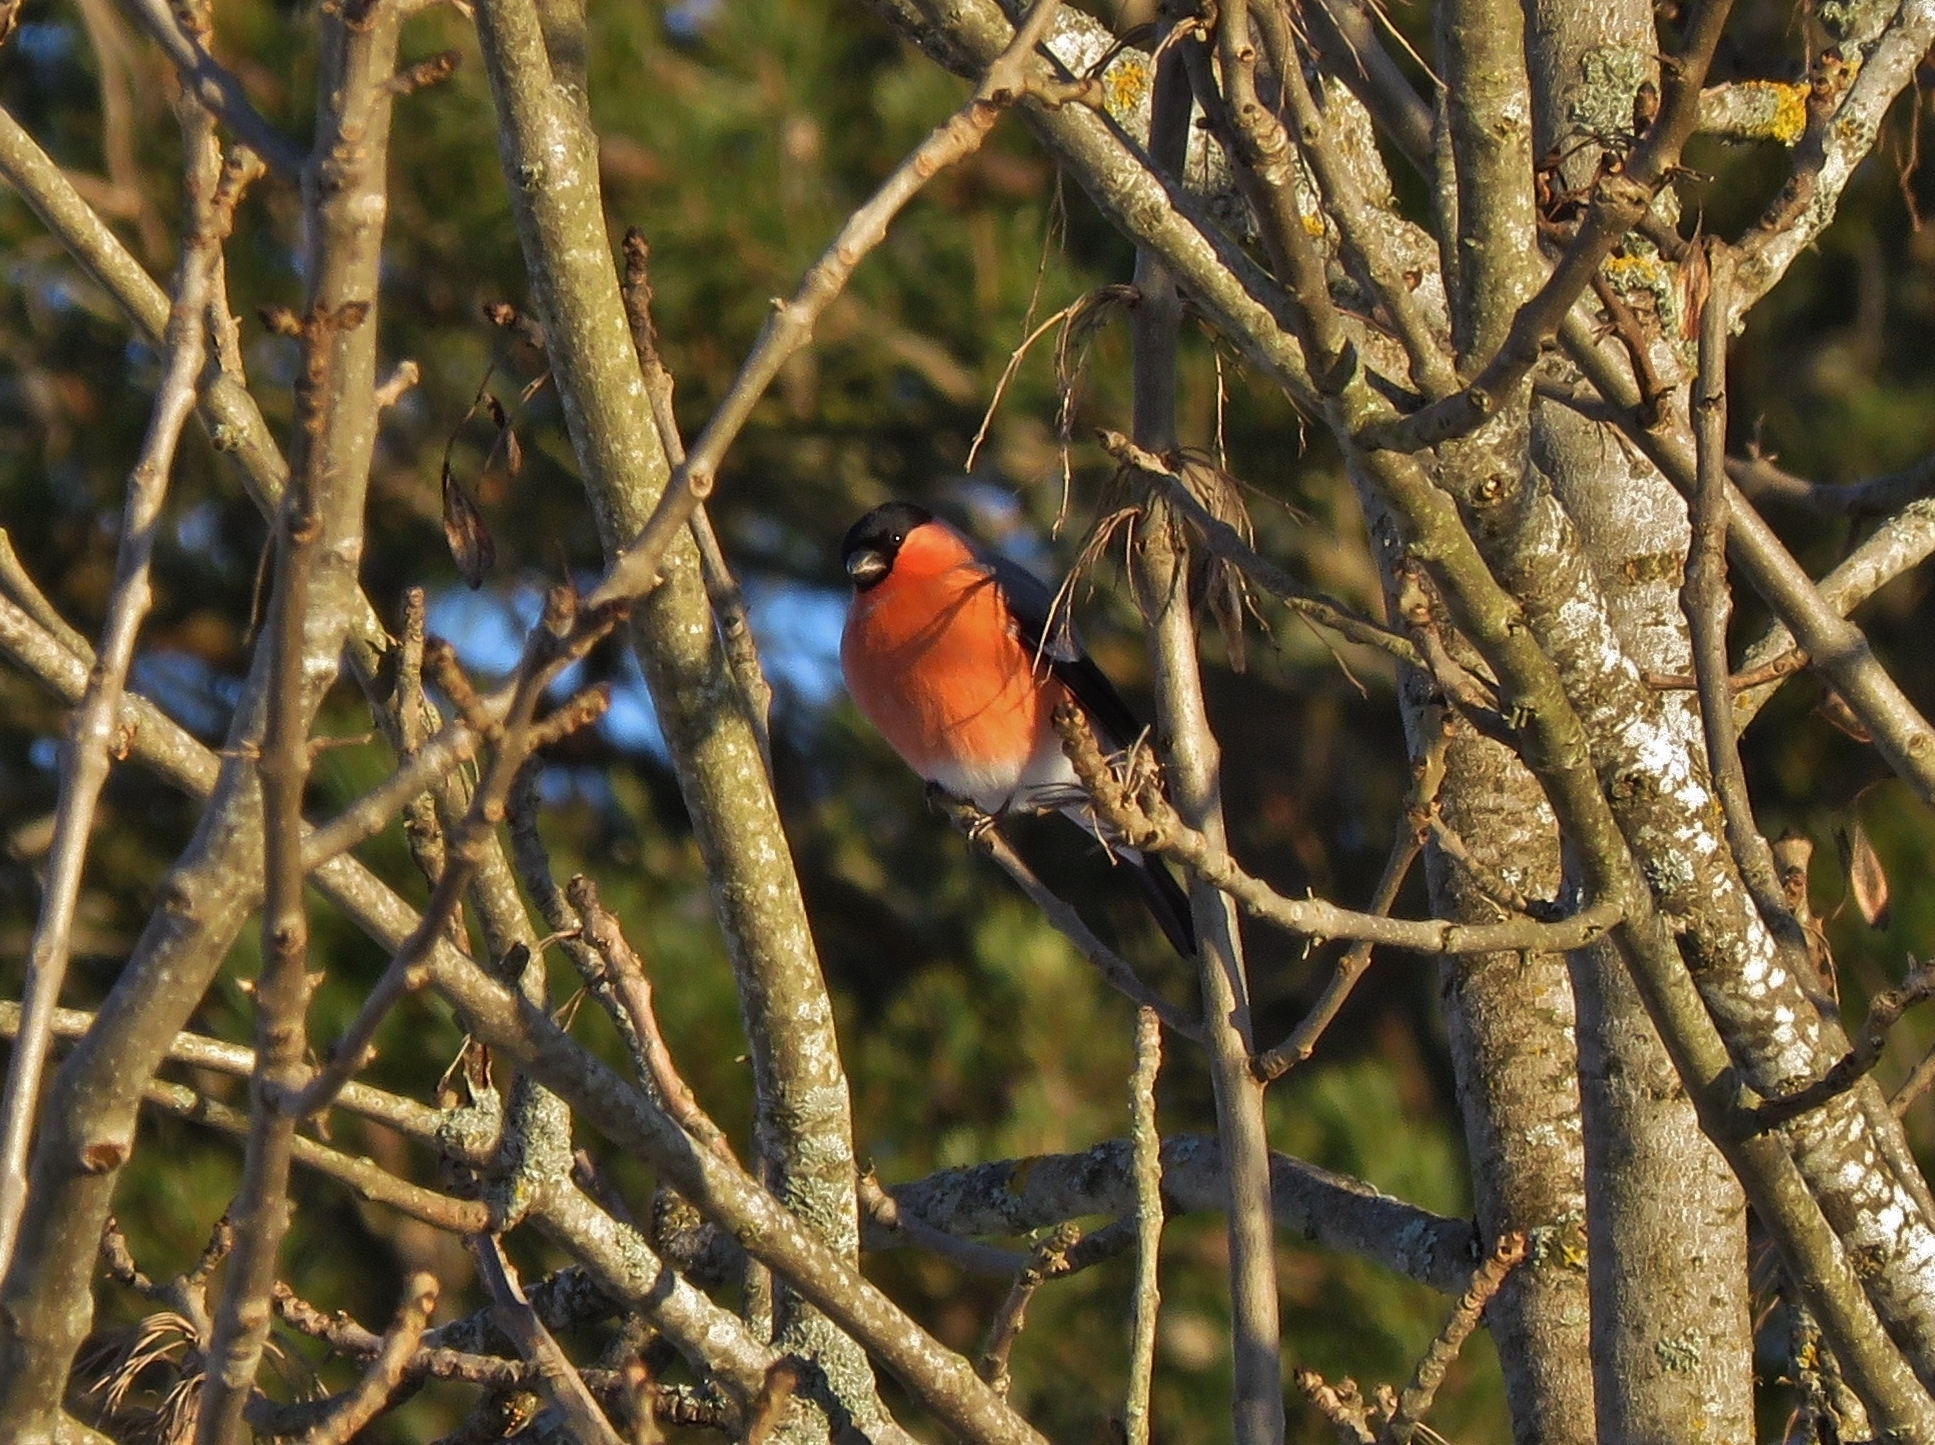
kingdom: Animalia
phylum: Chordata
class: Aves
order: Passeriformes
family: Fringillidae
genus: Pyrrhula
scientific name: Pyrrhula pyrrhula
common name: Eurasian bullfinch
